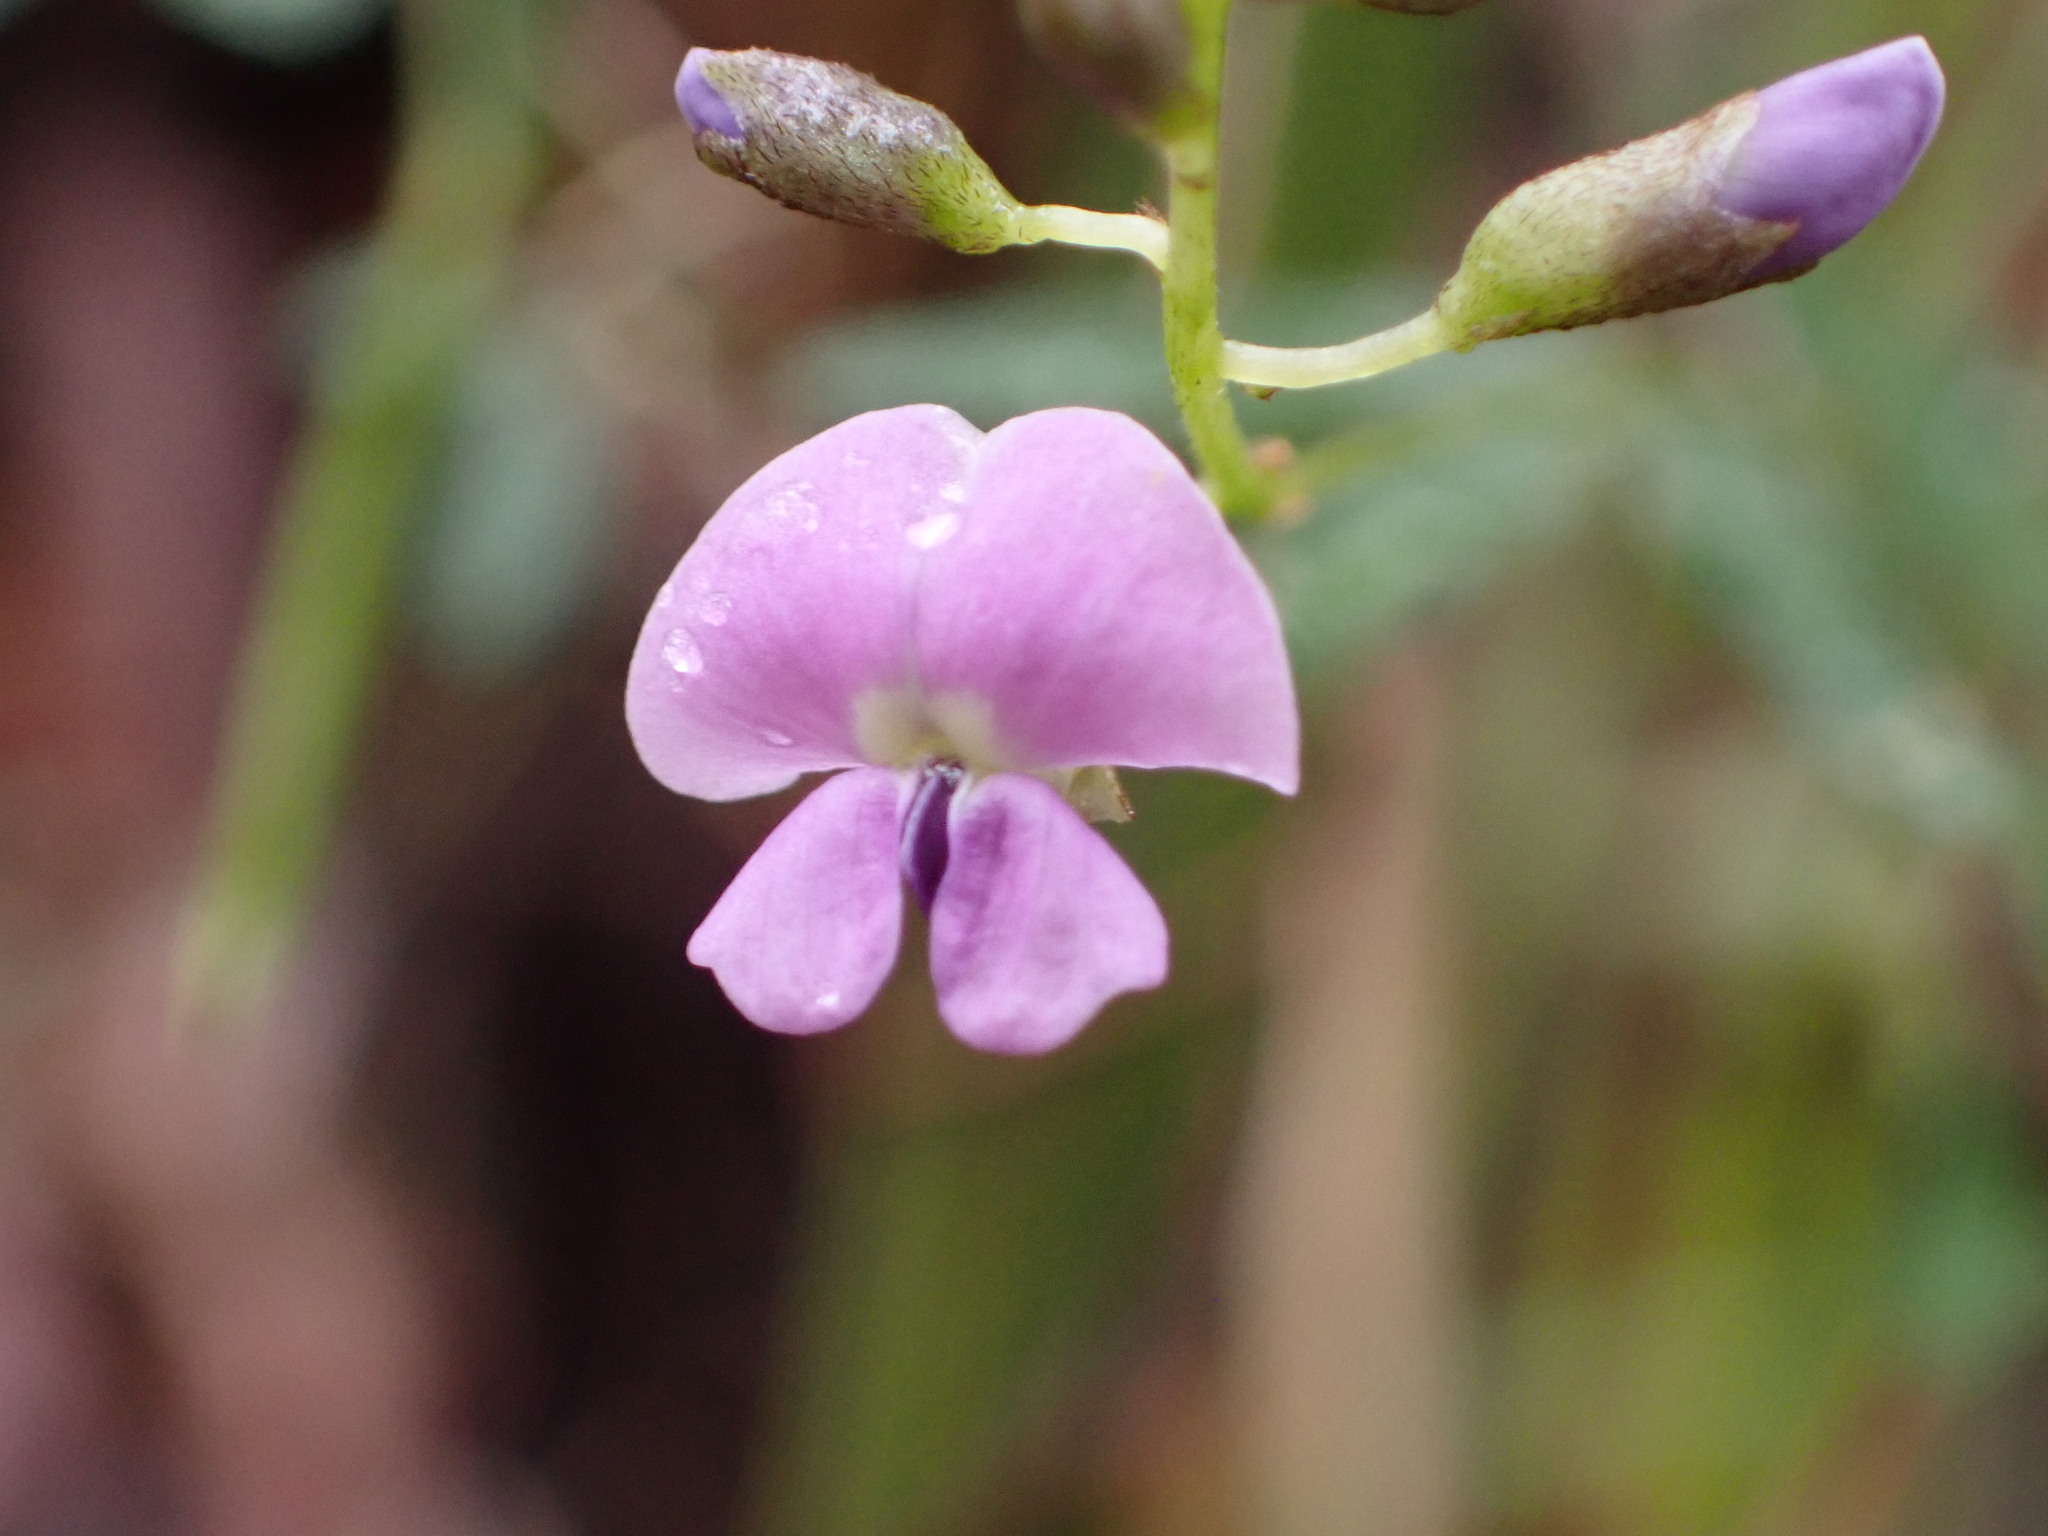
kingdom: Plantae
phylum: Tracheophyta
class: Magnoliopsida
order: Fabales
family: Fabaceae
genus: Glycine
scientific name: Glycine clandestina
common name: Twining glycine
